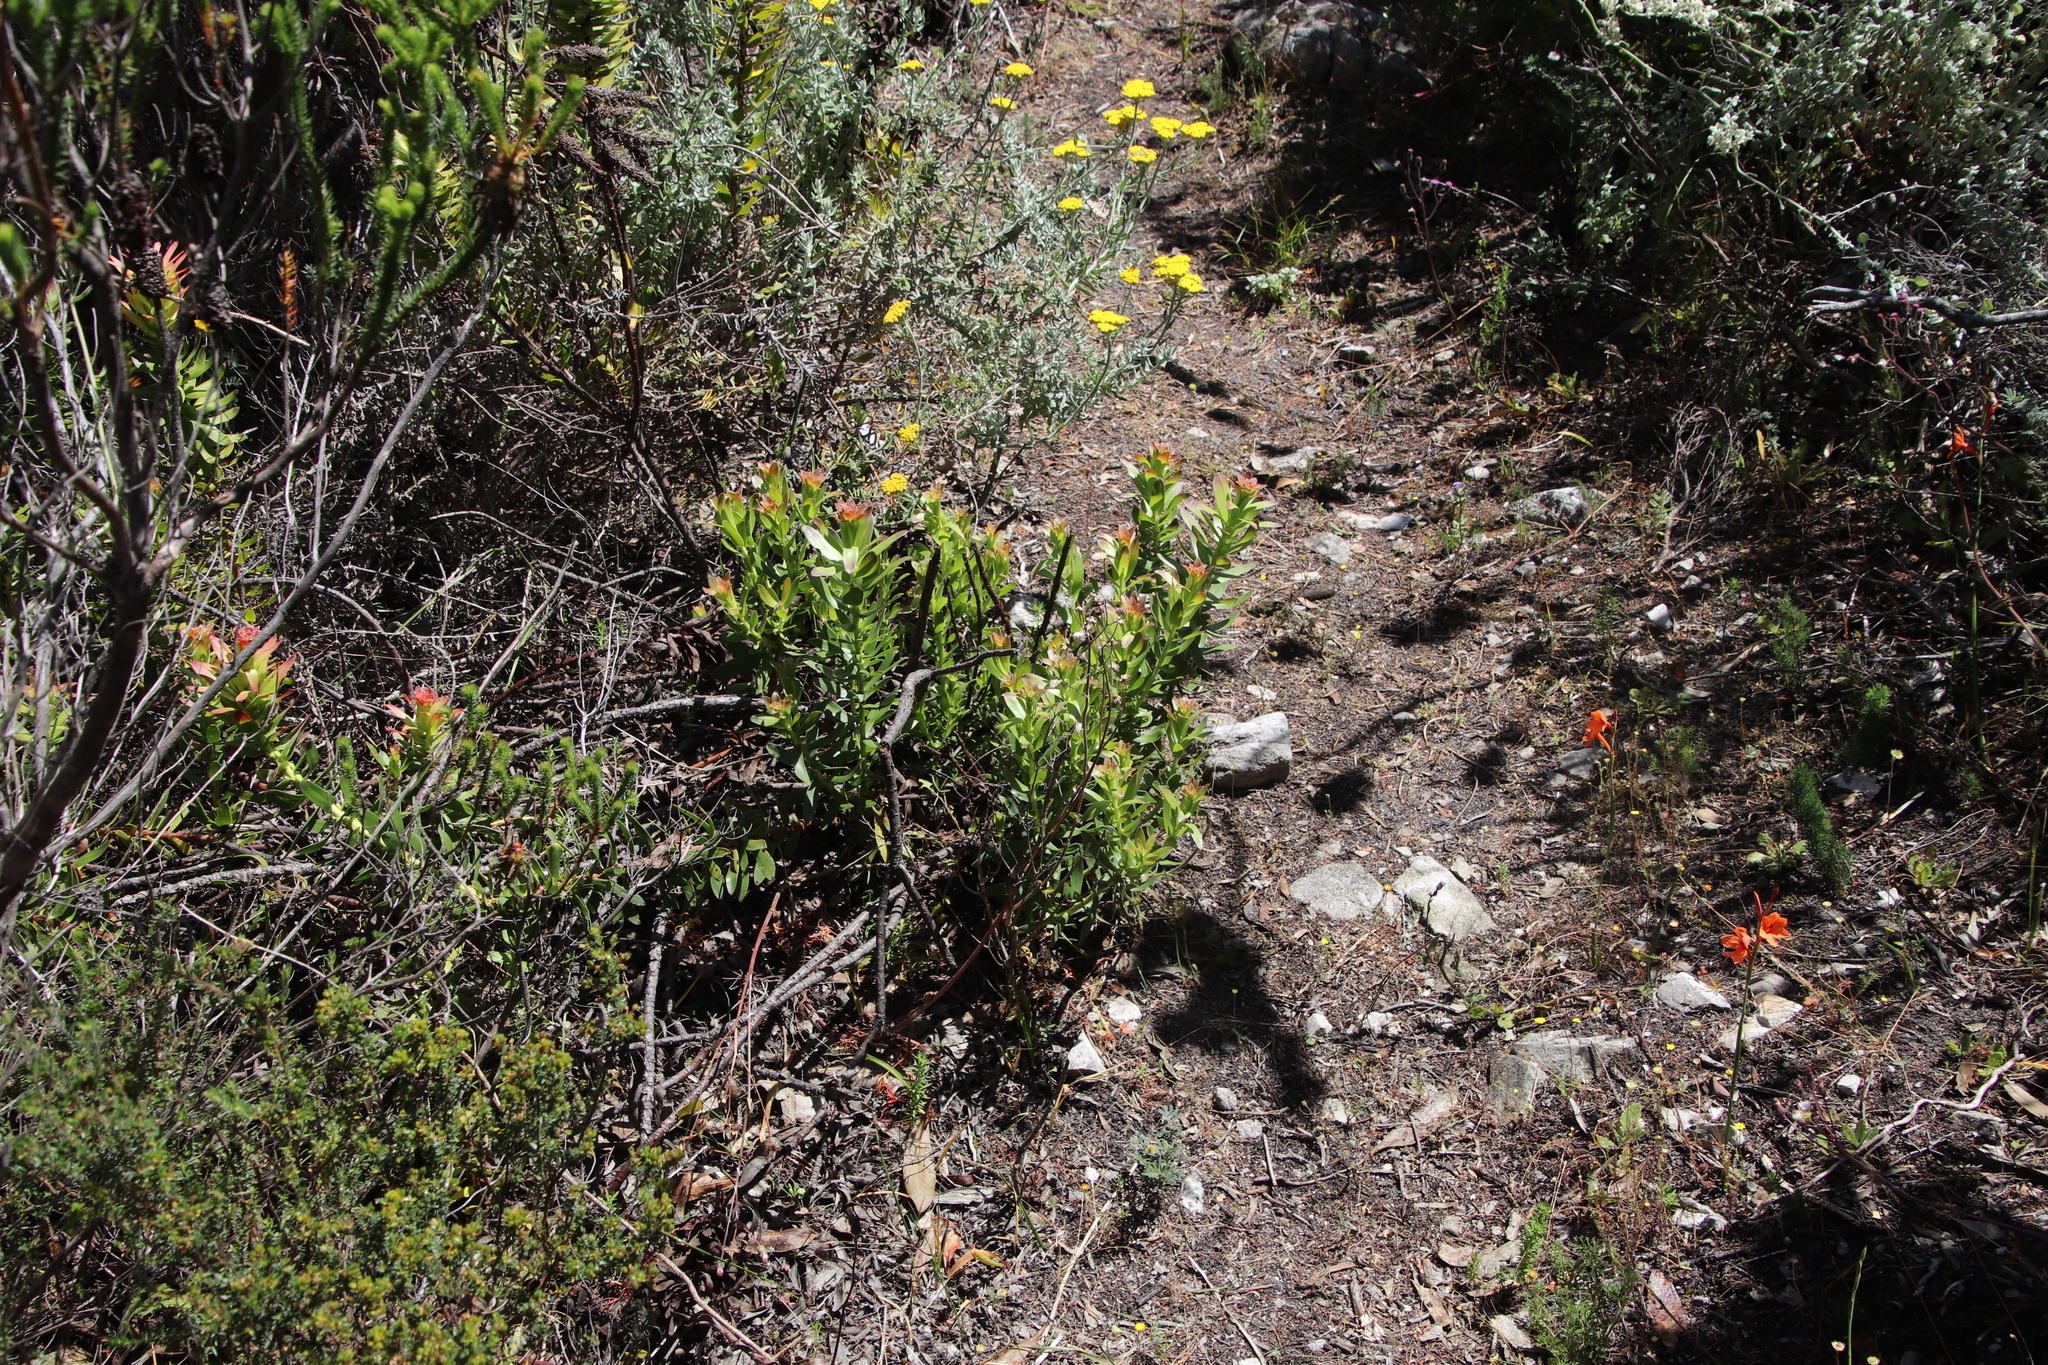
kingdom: Plantae
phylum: Tracheophyta
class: Magnoliopsida
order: Proteales
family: Proteaceae
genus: Mimetes
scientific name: Mimetes cucullatus
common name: Common pagoda
